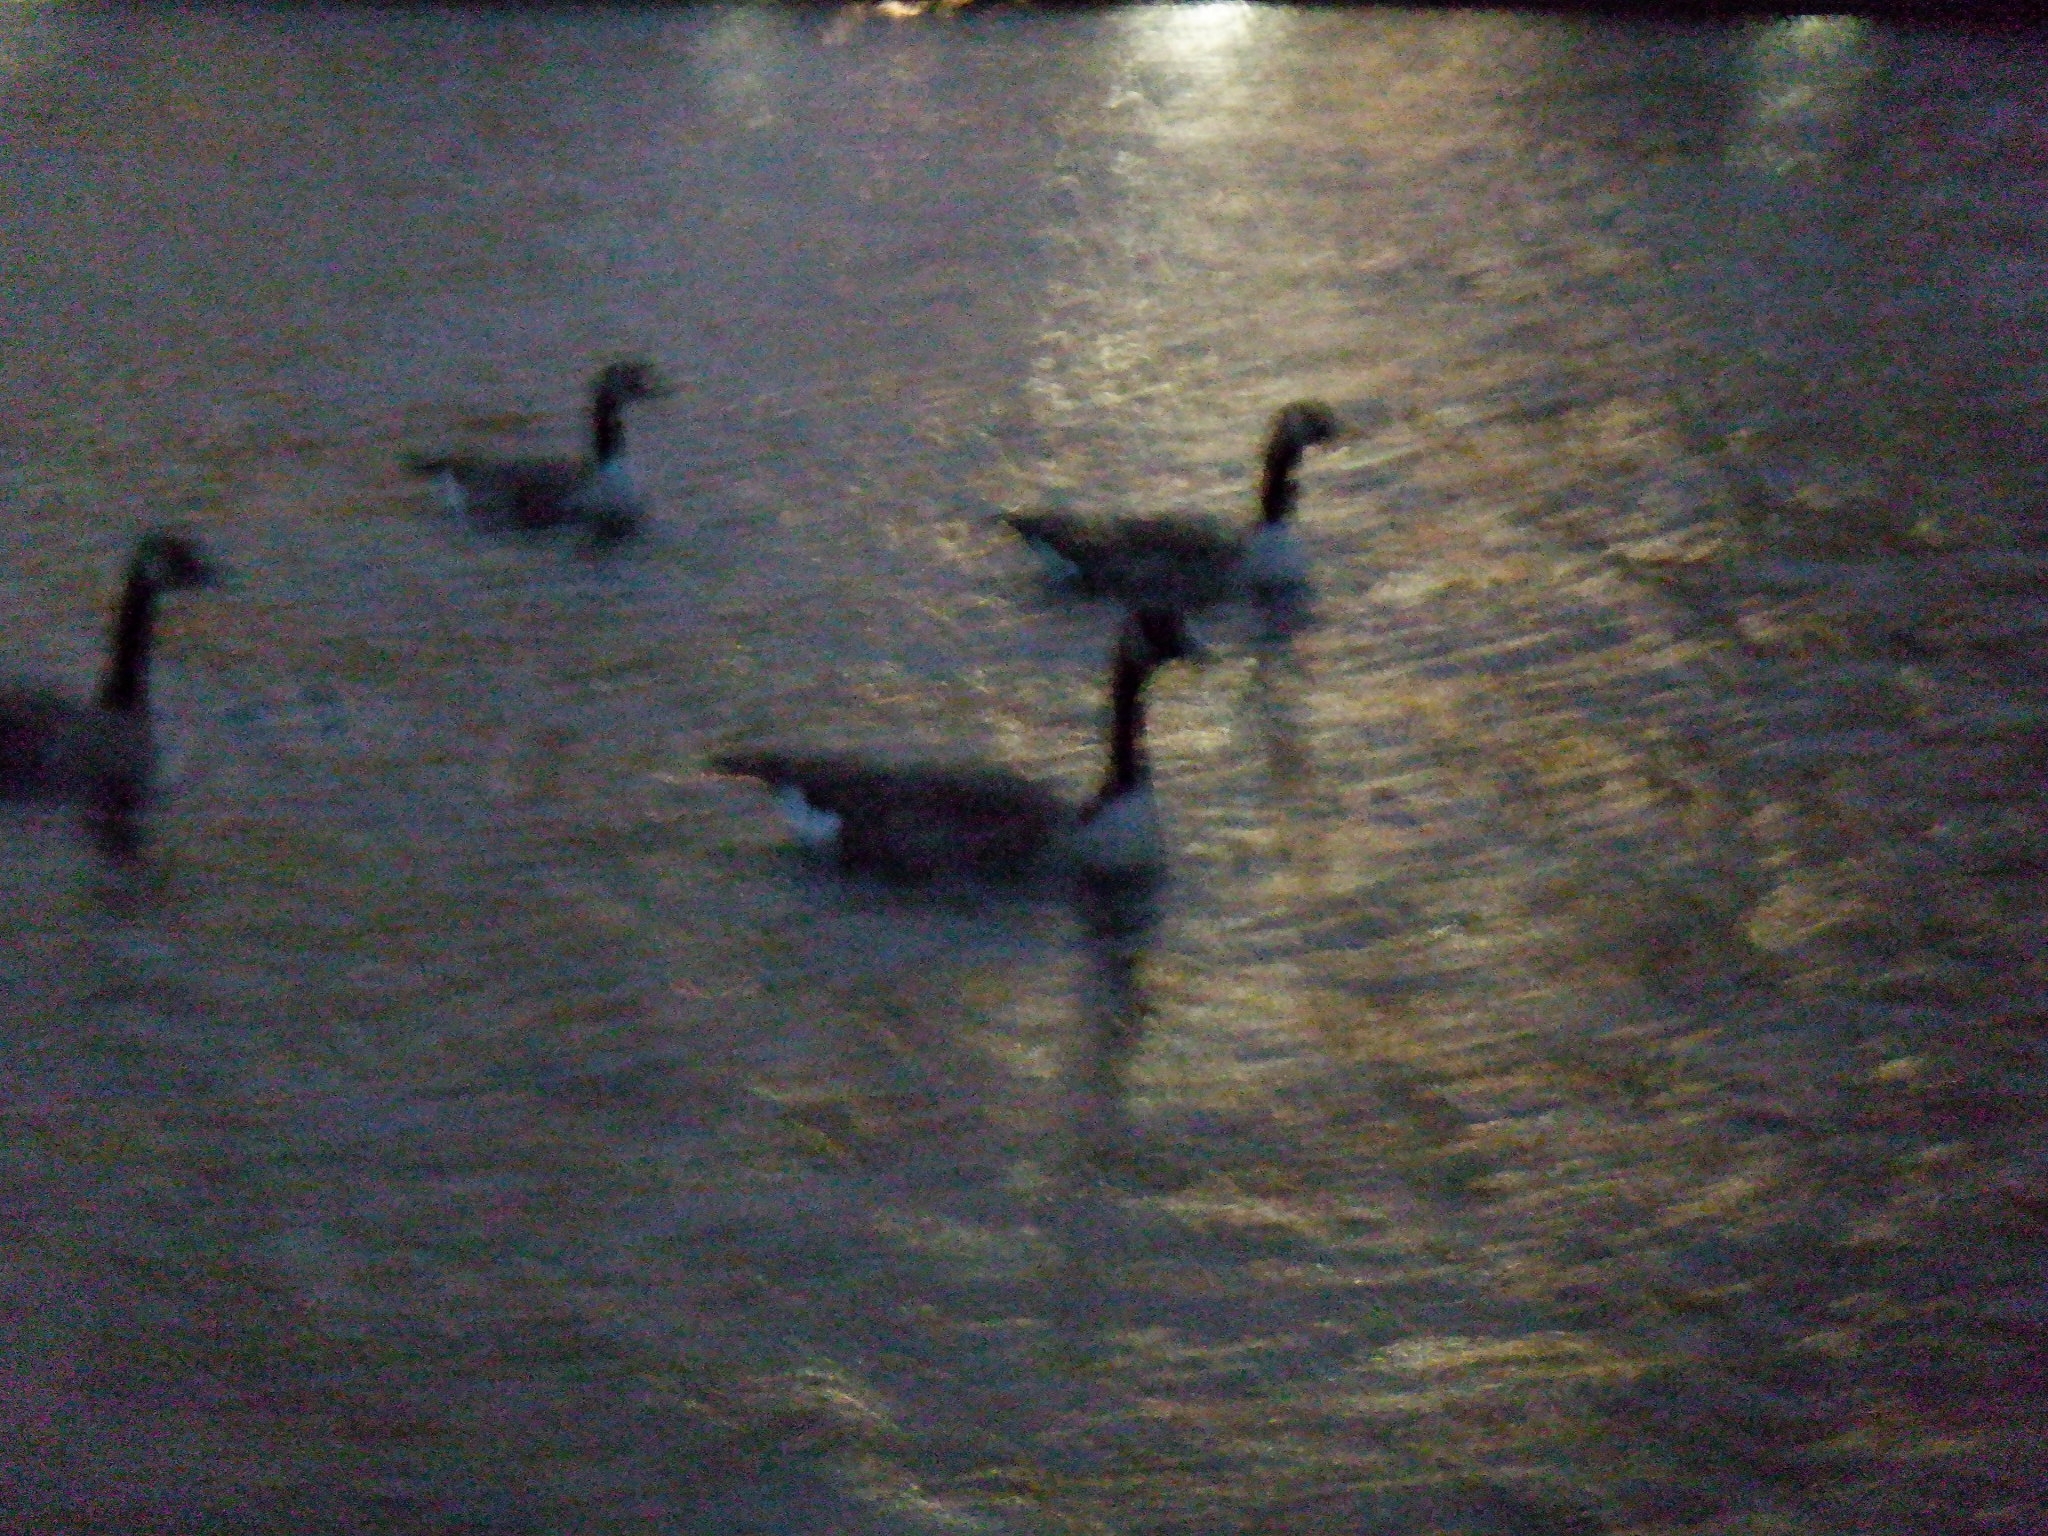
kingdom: Animalia
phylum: Chordata
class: Aves
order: Anseriformes
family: Anatidae
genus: Branta
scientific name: Branta canadensis
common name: Canada goose
